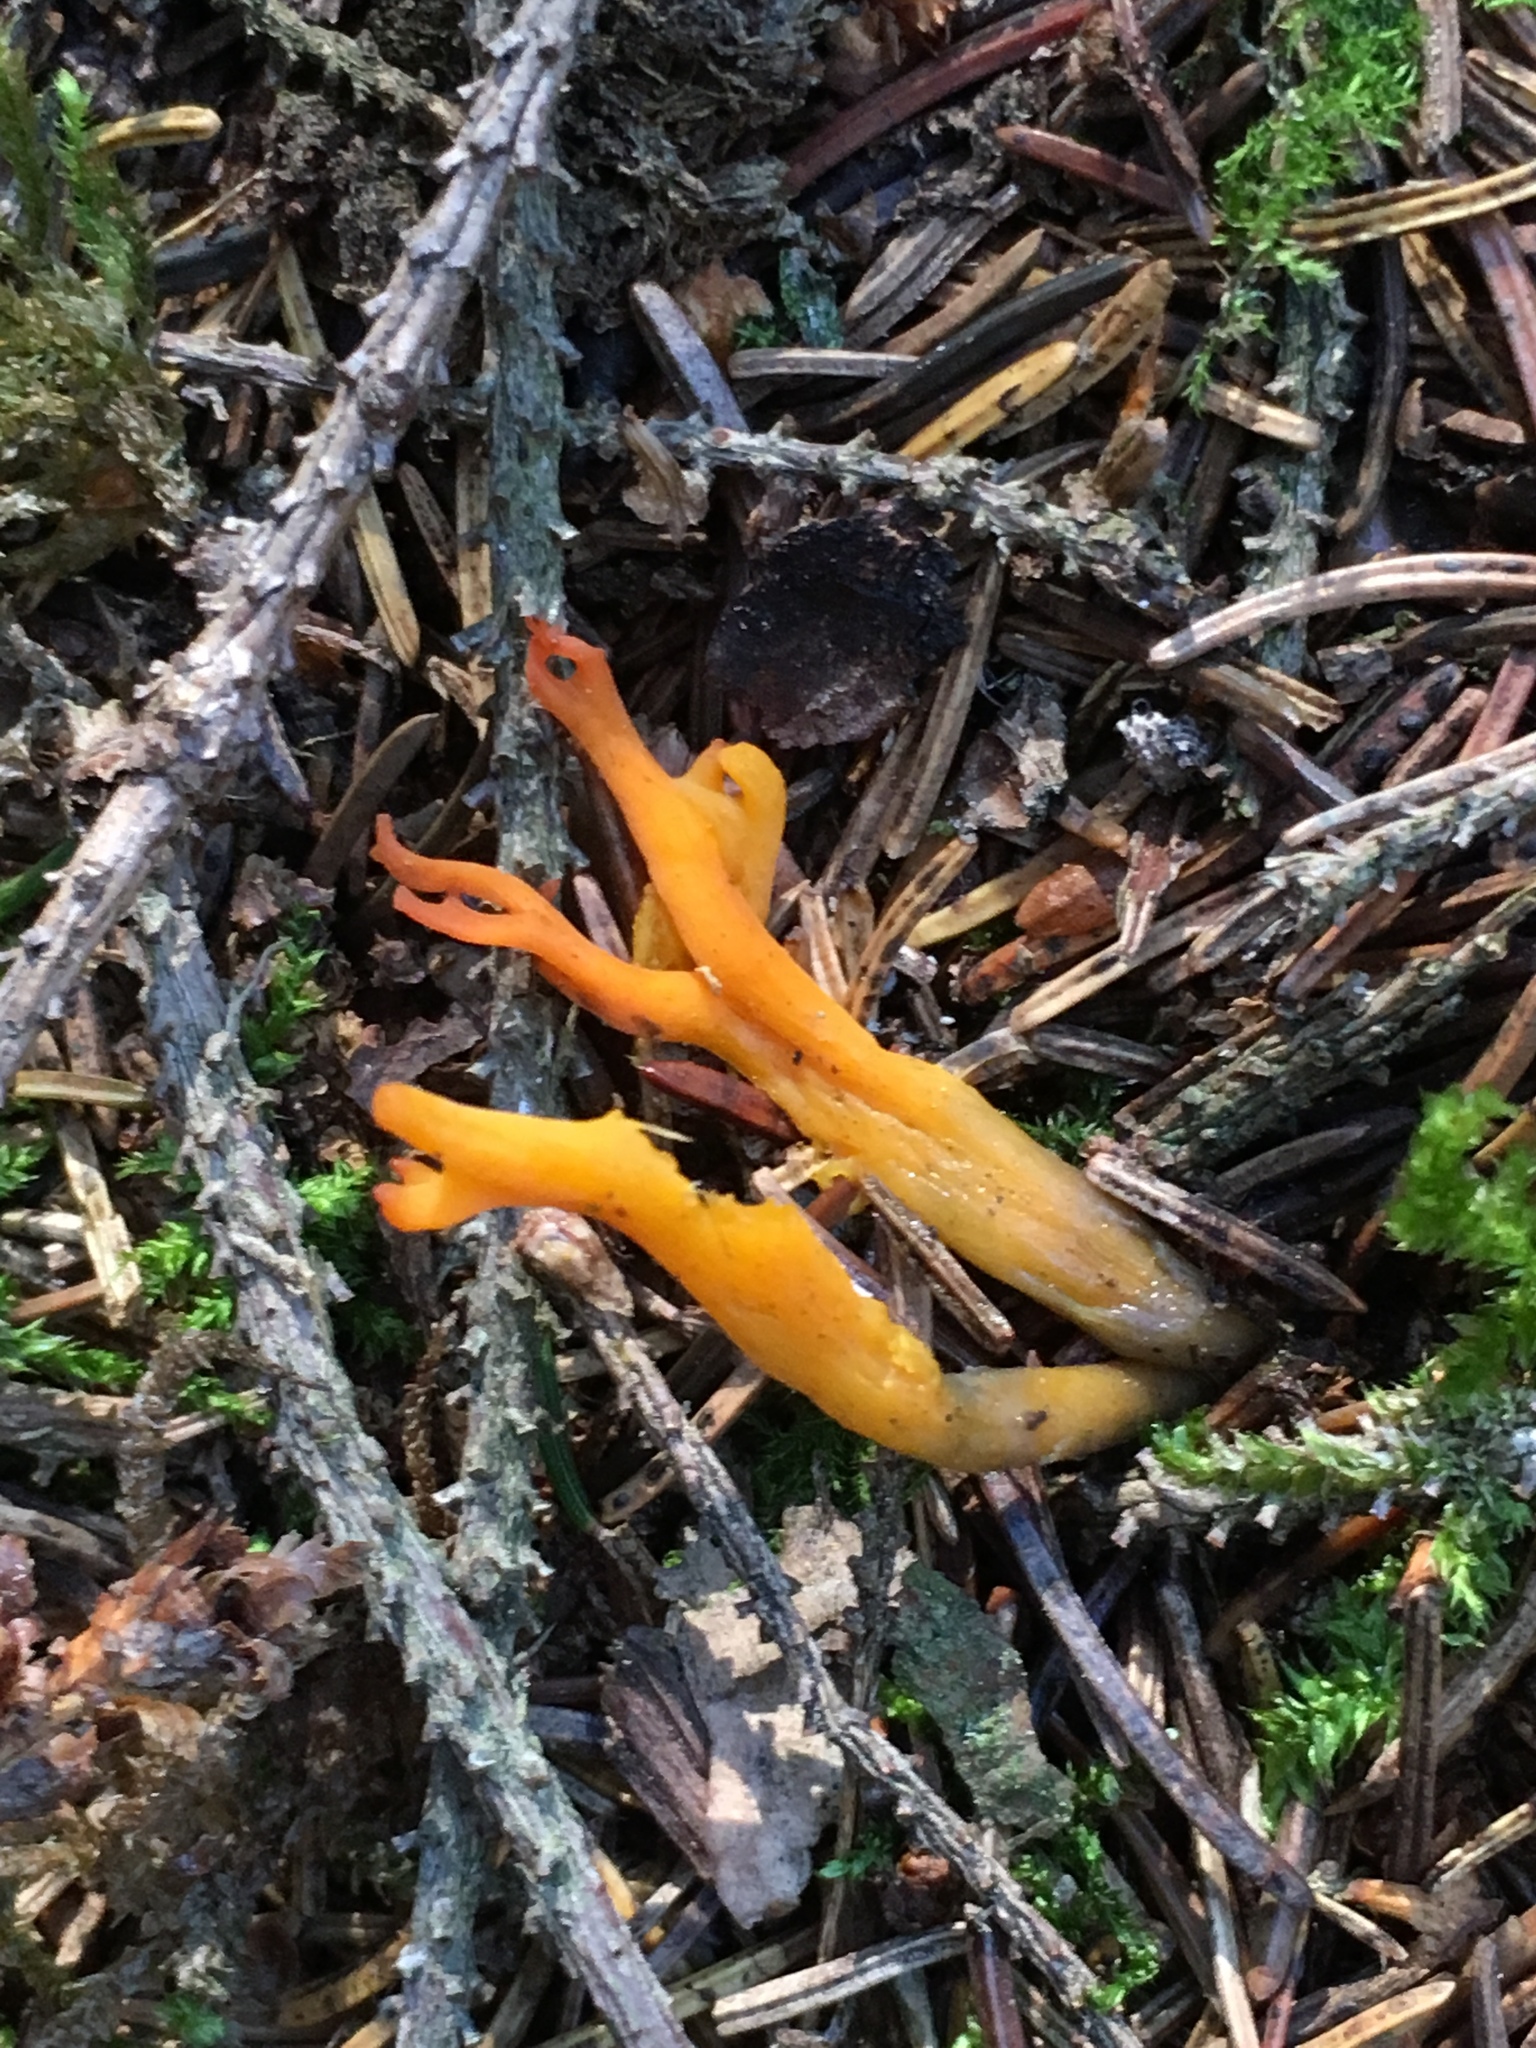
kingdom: Fungi
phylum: Basidiomycota
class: Dacrymycetes
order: Dacrymycetales
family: Dacrymycetaceae
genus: Calocera
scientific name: Calocera viscosa
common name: Yellow stagshorn
